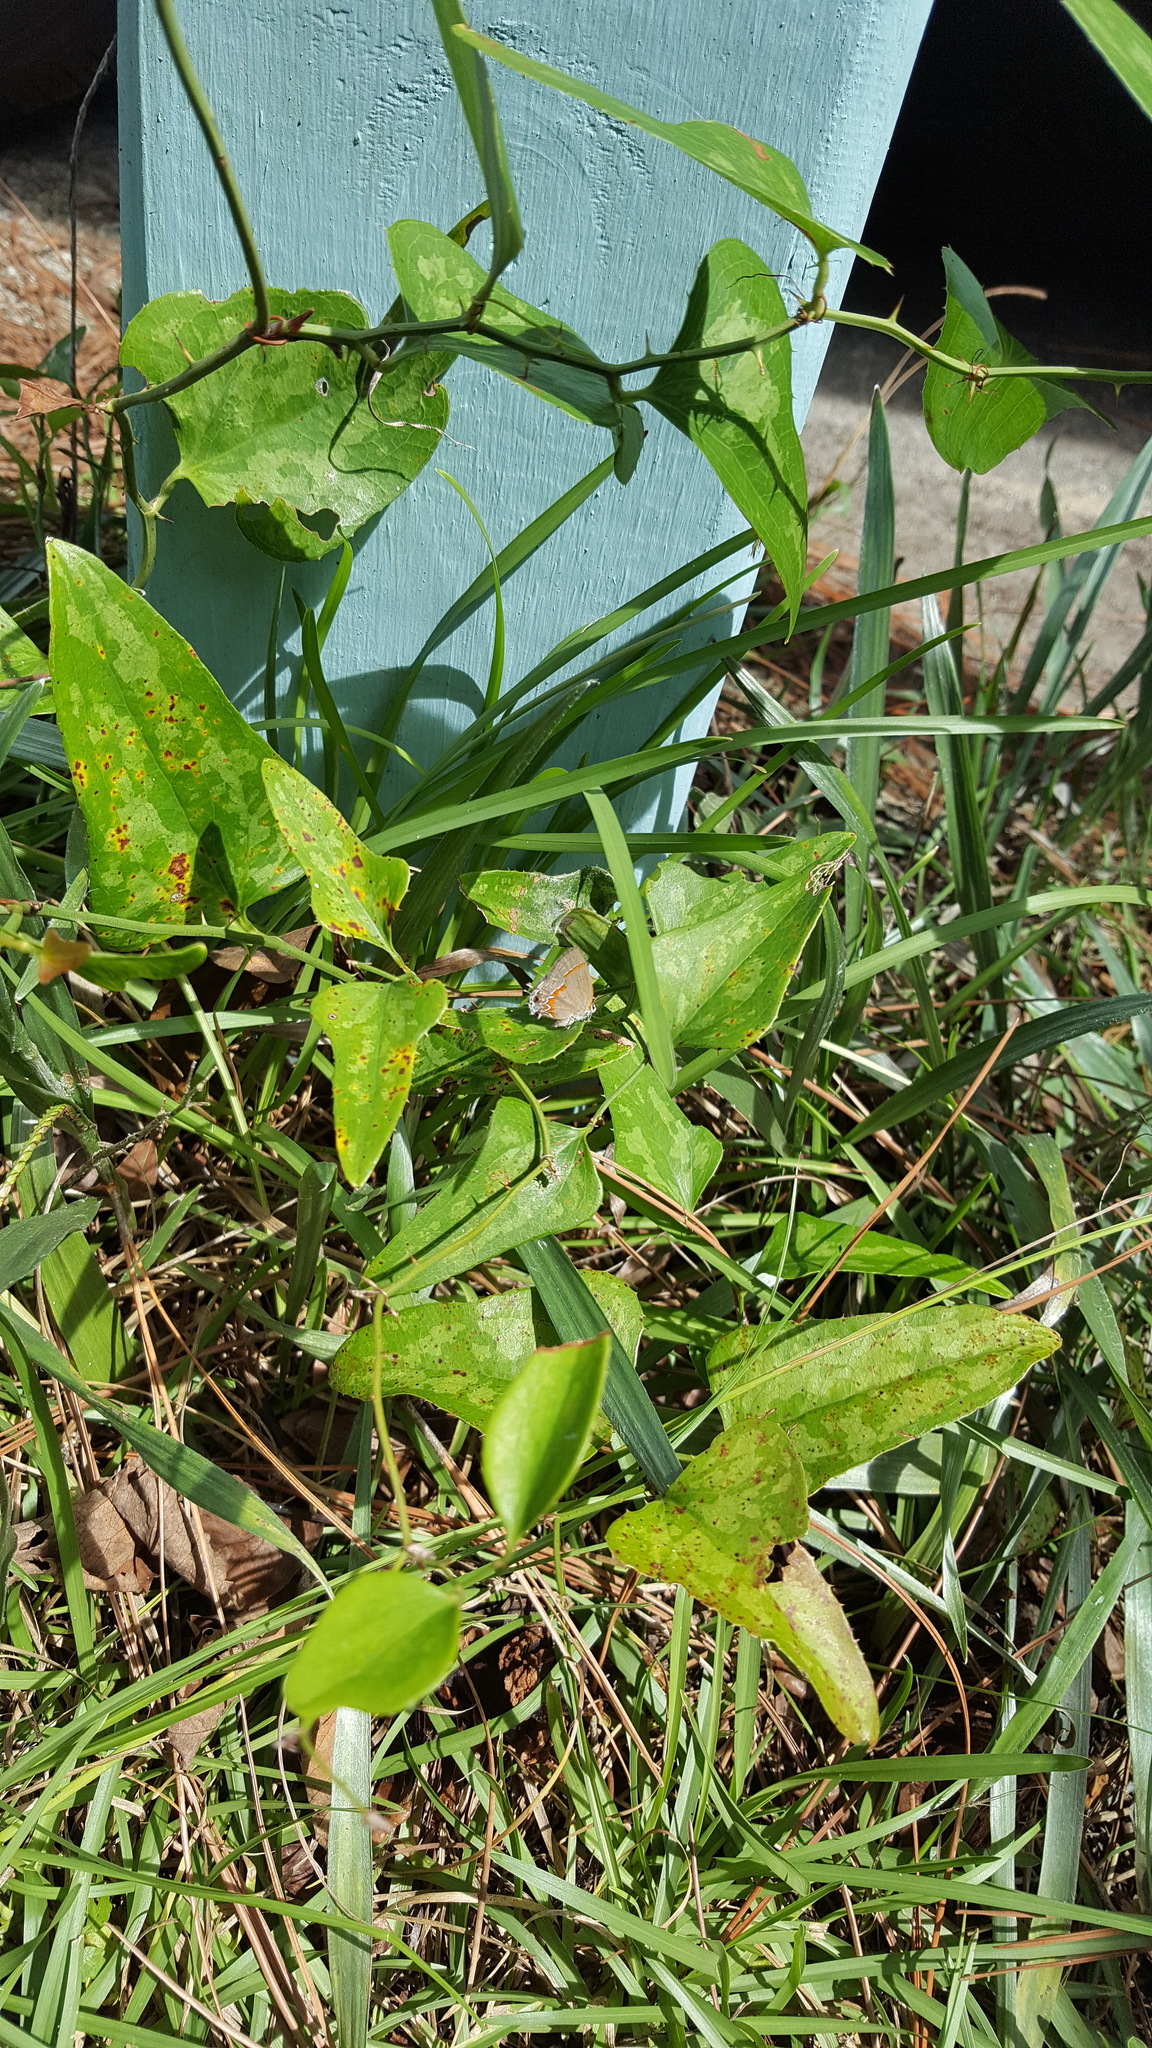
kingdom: Animalia
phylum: Arthropoda
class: Insecta
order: Lepidoptera
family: Lycaenidae
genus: Calycopis
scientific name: Calycopis cecrops
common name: Red-banded hairstreak
